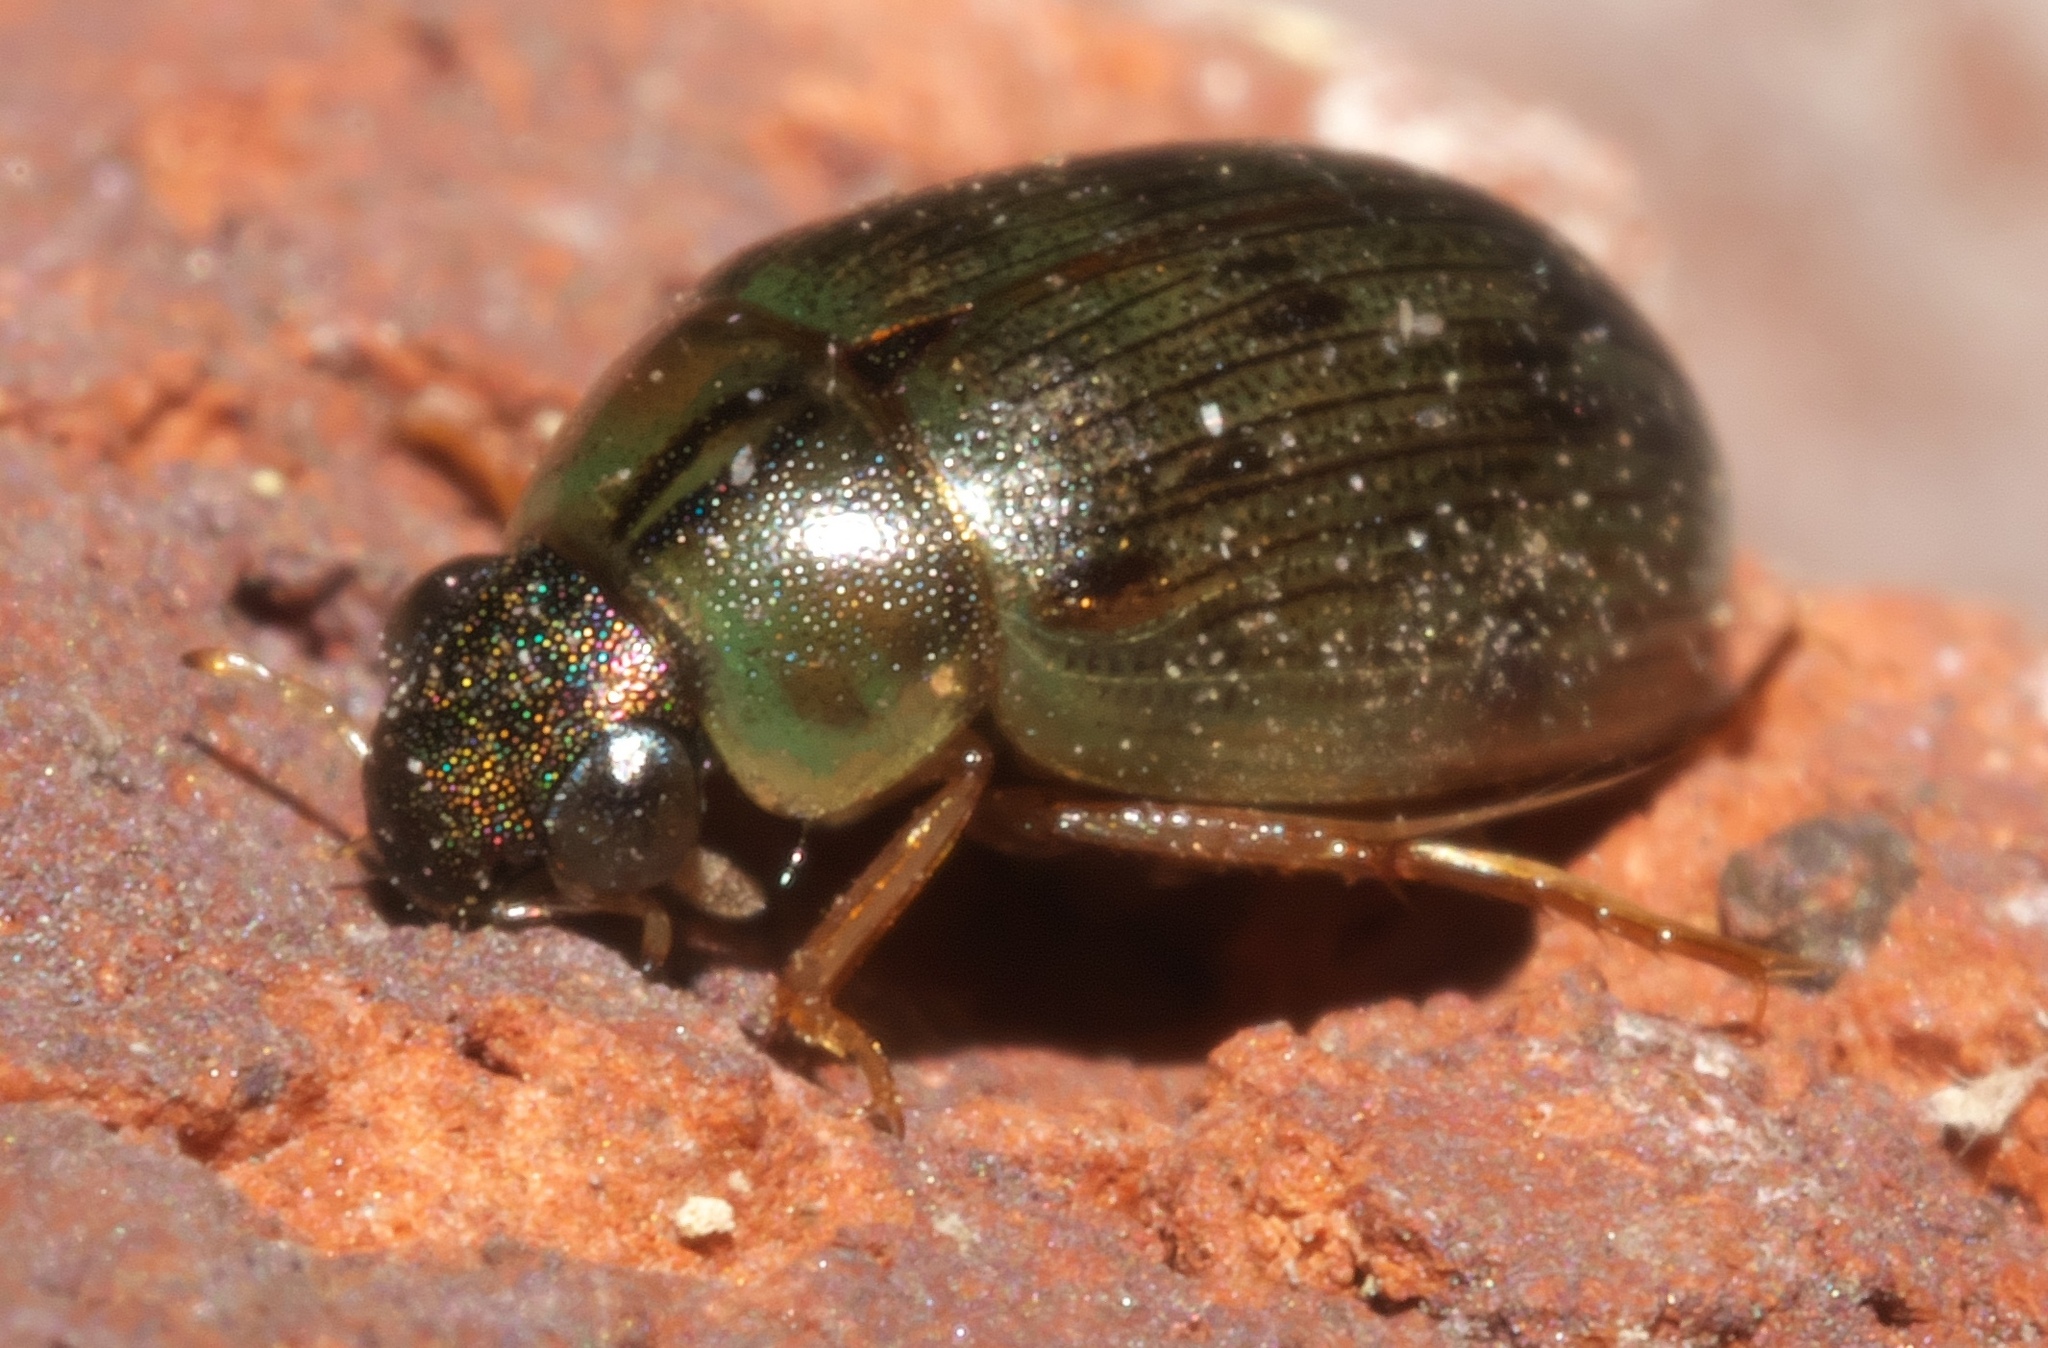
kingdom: Animalia
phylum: Arthropoda
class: Insecta
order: Coleoptera
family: Hydrophilidae
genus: Berosus
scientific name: Berosus
